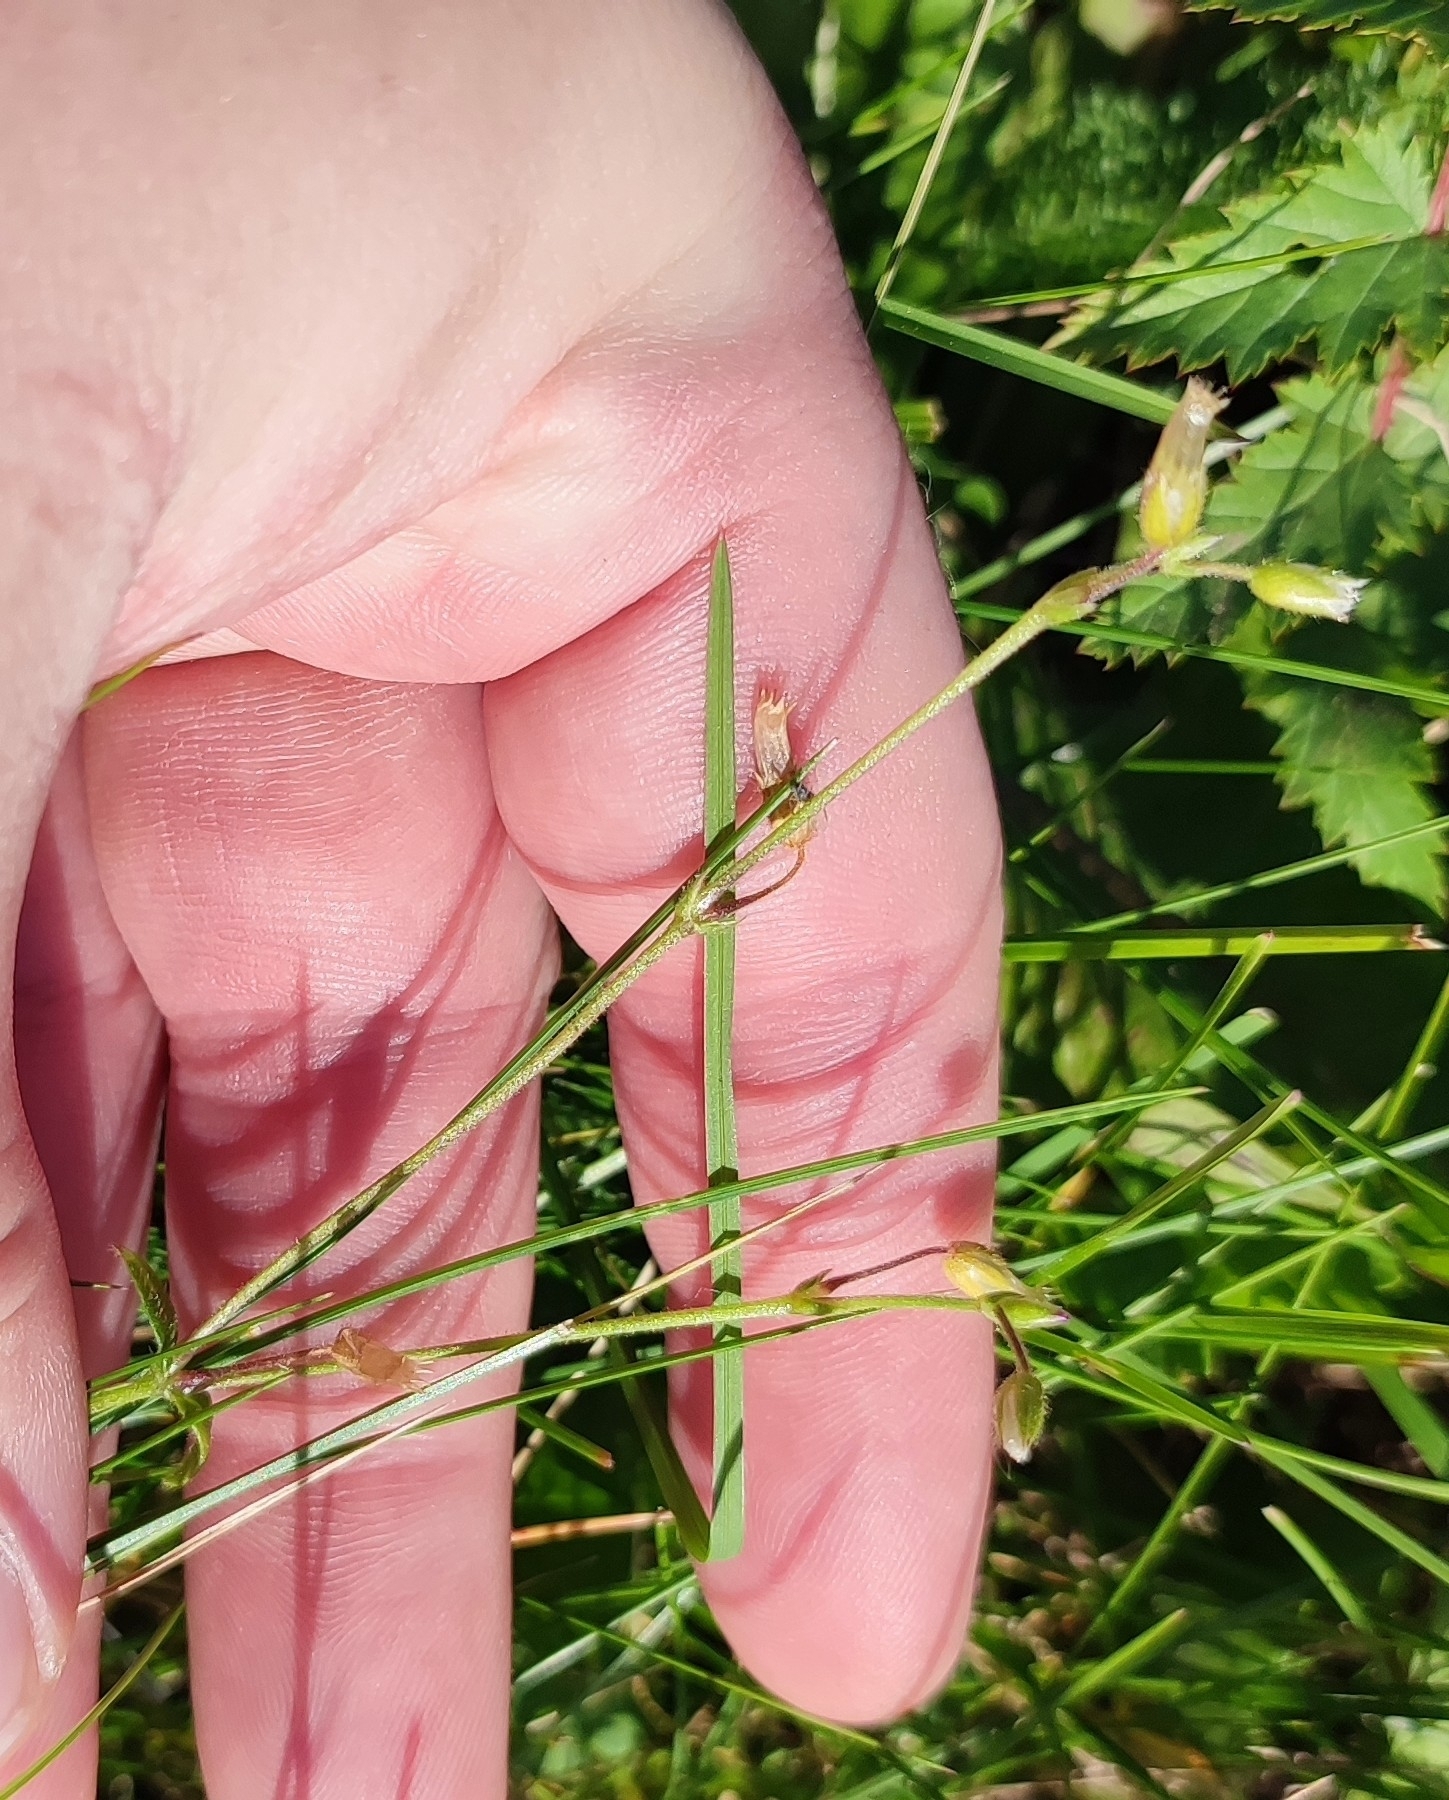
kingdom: Plantae
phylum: Tracheophyta
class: Magnoliopsida
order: Caryophyllales
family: Caryophyllaceae
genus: Cerastium
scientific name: Cerastium holosteoides
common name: Big chickweed
